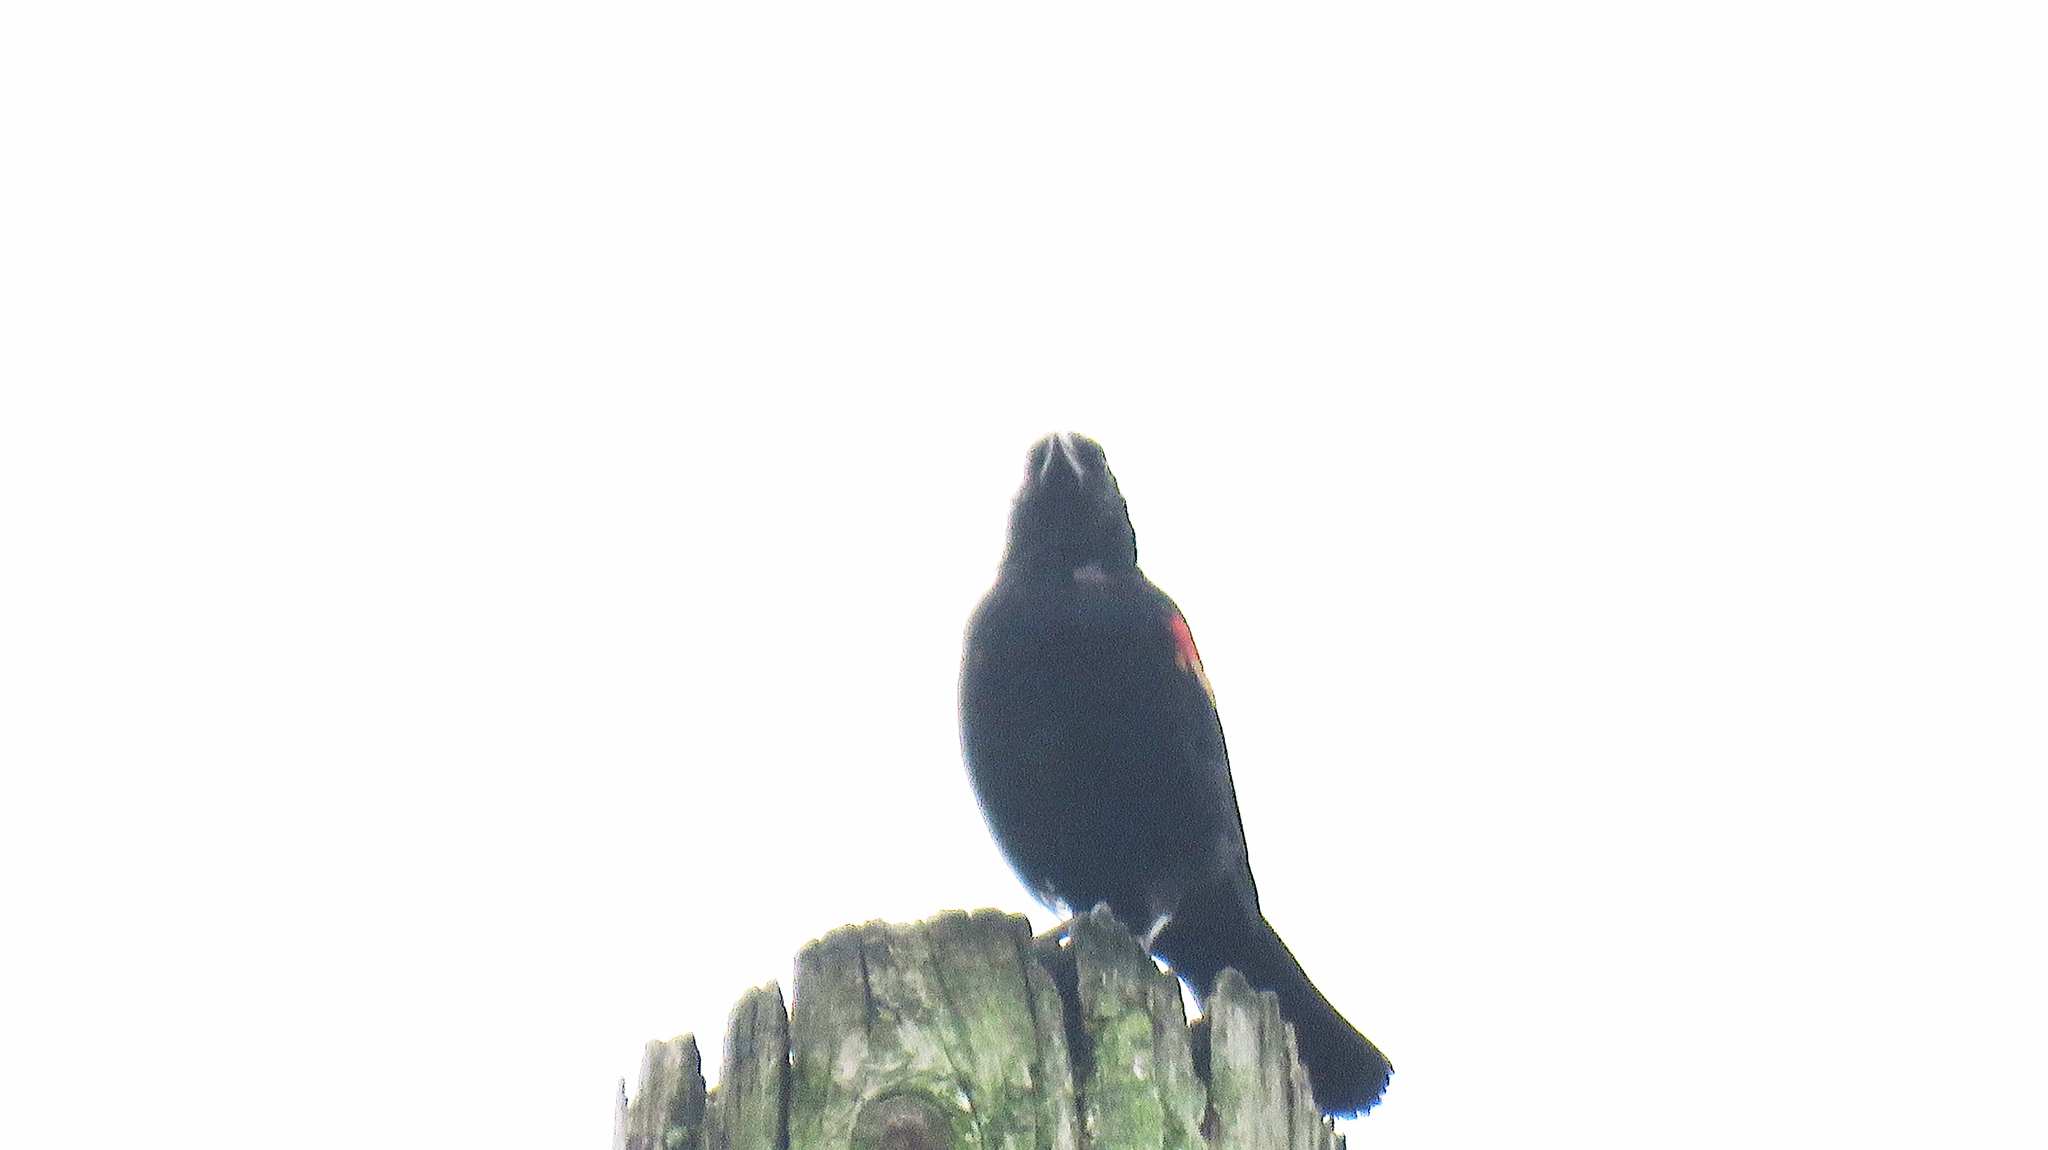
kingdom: Animalia
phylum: Chordata
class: Aves
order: Passeriformes
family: Icteridae
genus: Agelaius
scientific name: Agelaius phoeniceus
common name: Red-winged blackbird
